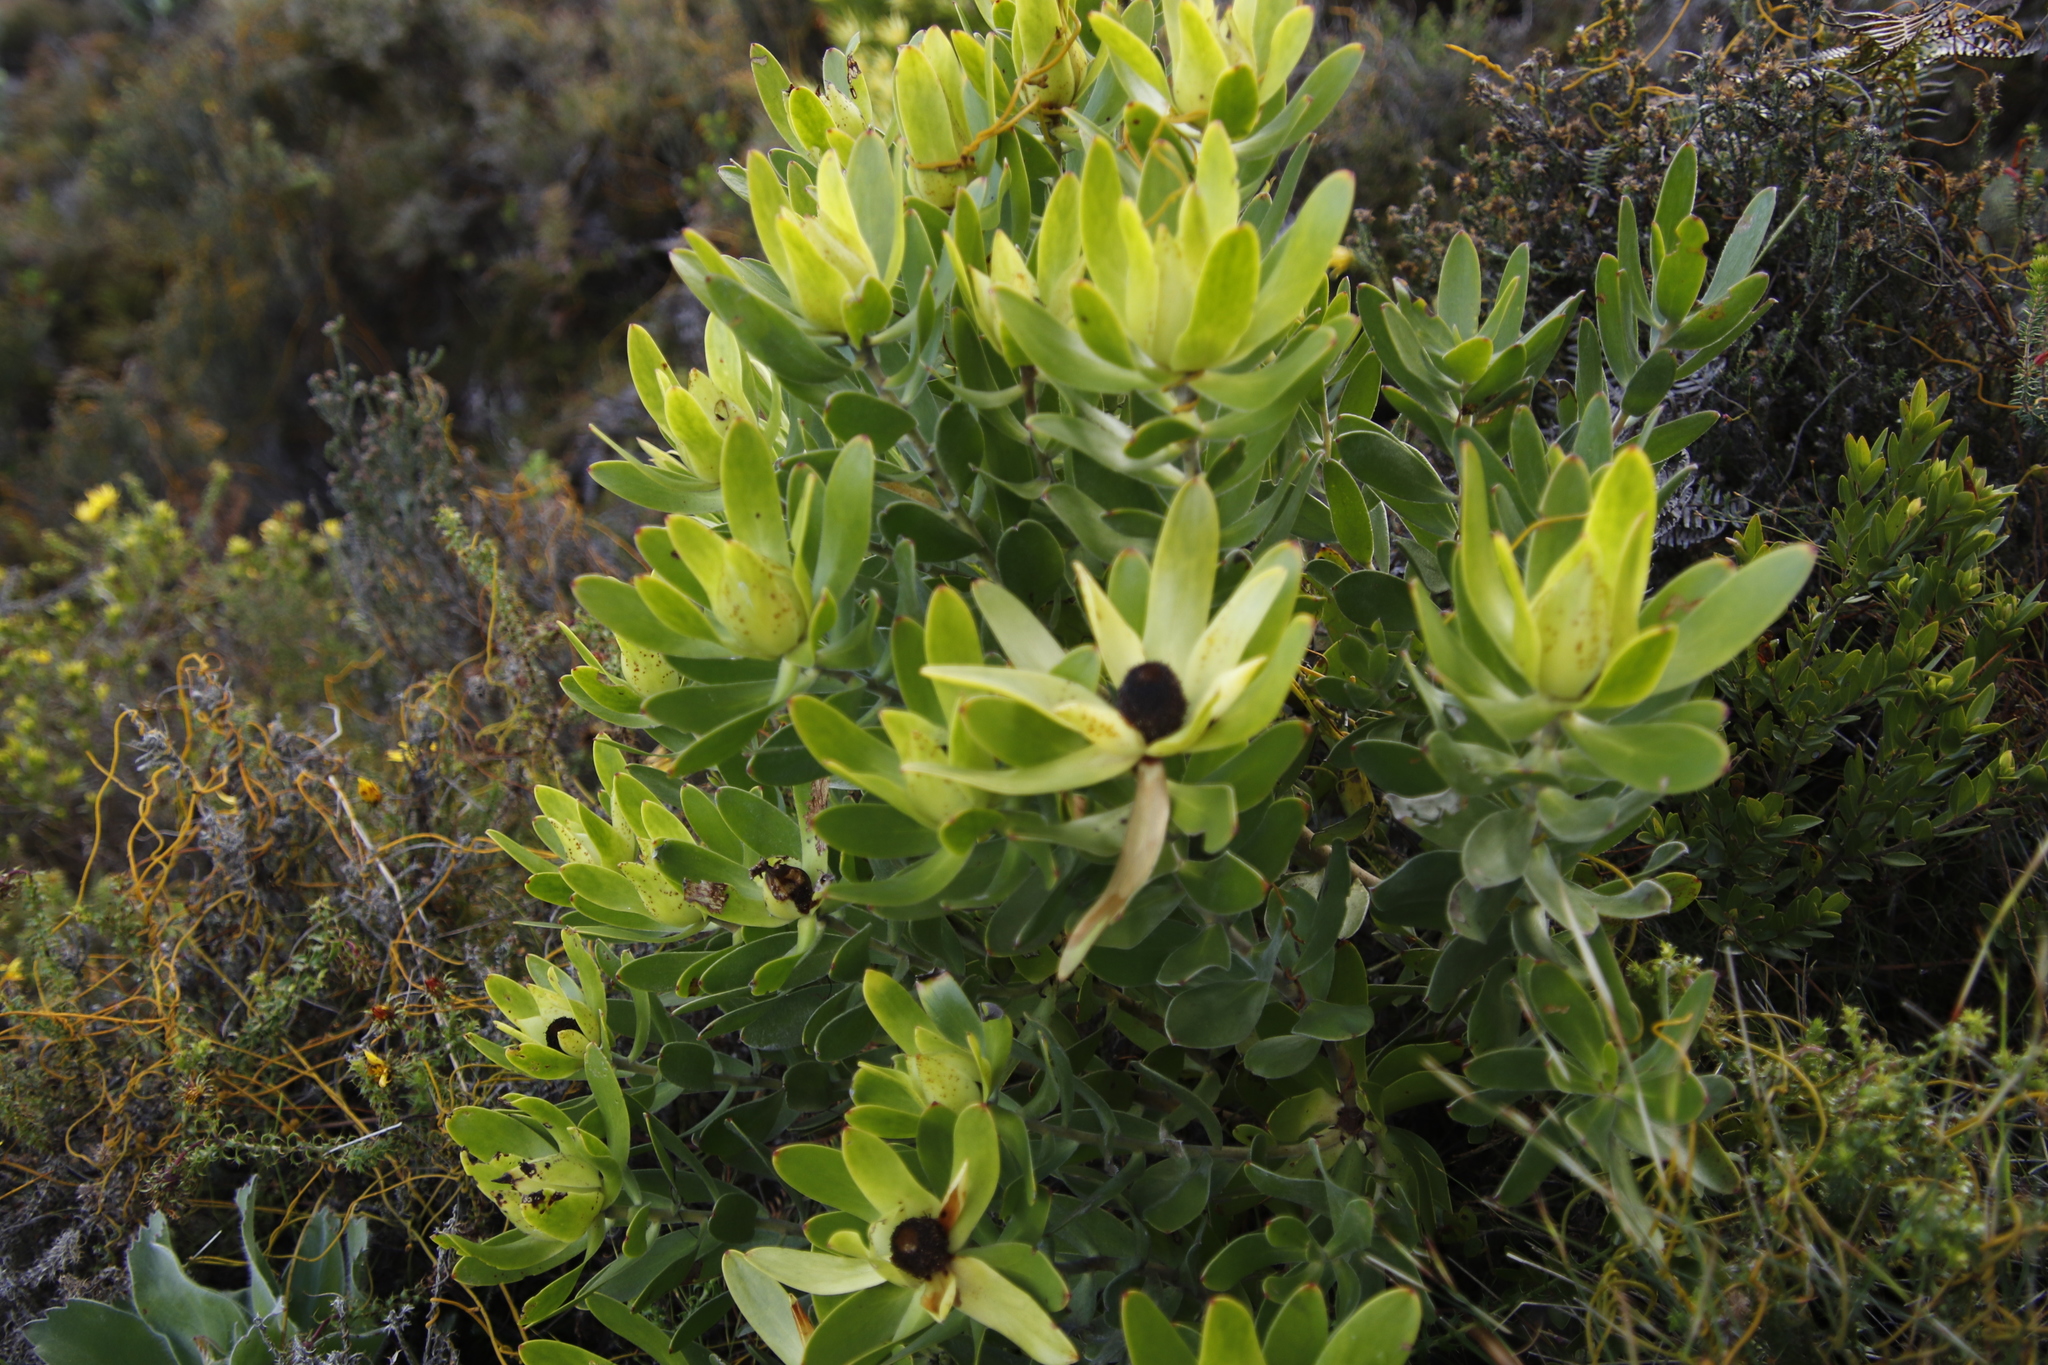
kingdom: Plantae
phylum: Tracheophyta
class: Magnoliopsida
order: Proteales
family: Proteaceae
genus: Leucadendron
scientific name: Leucadendron laureolum
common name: Golden sunshinebush
